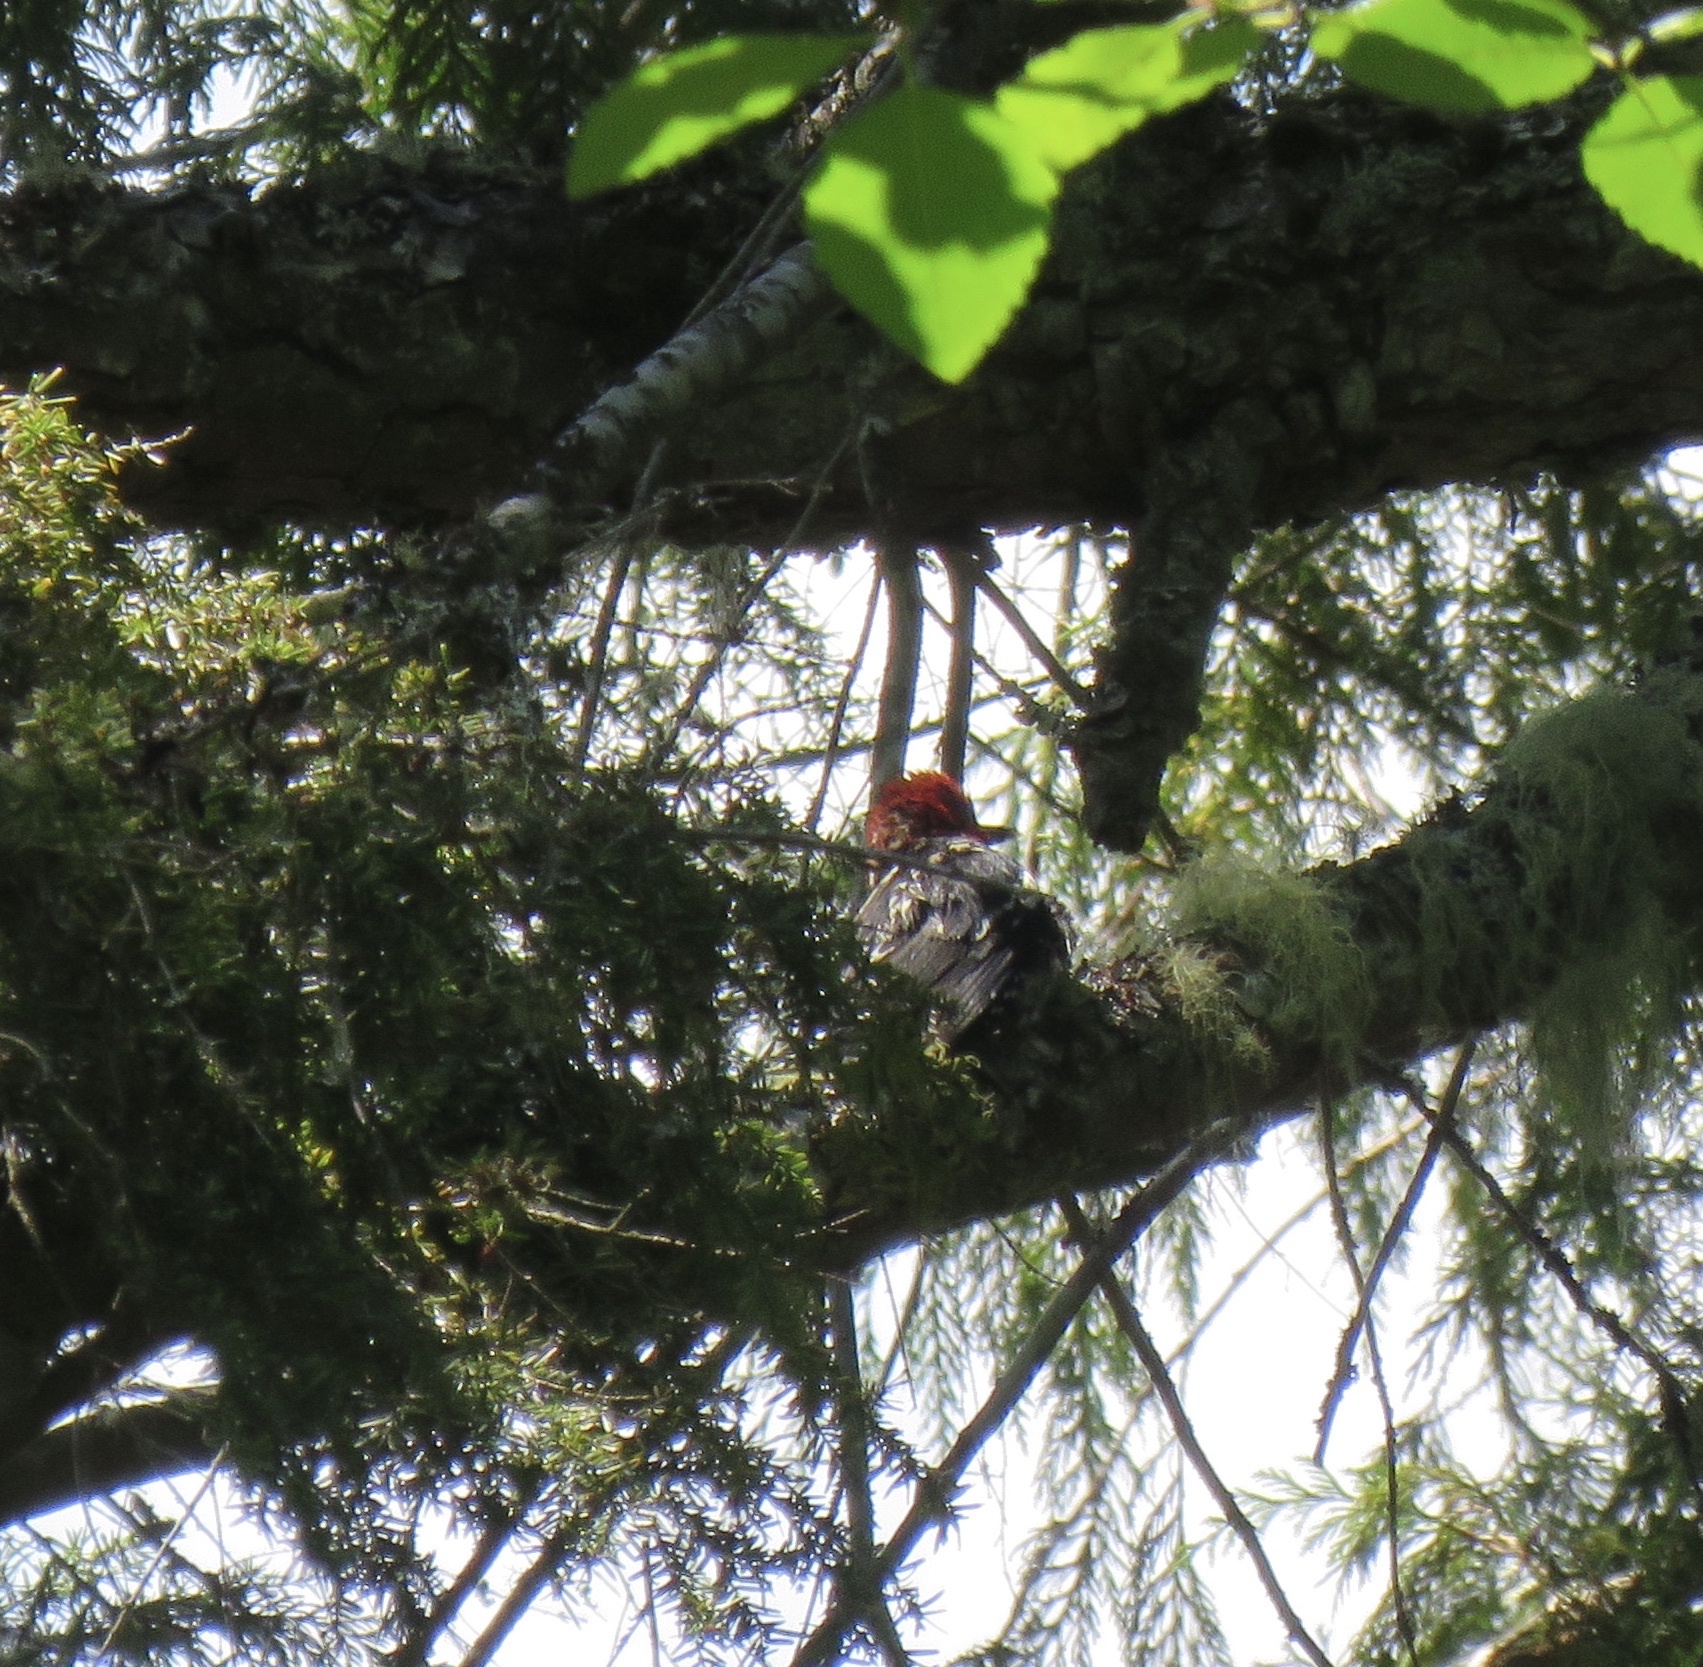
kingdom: Animalia
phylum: Chordata
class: Aves
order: Piciformes
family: Picidae
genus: Sphyrapicus
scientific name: Sphyrapicus ruber
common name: Red-breasted sapsucker
